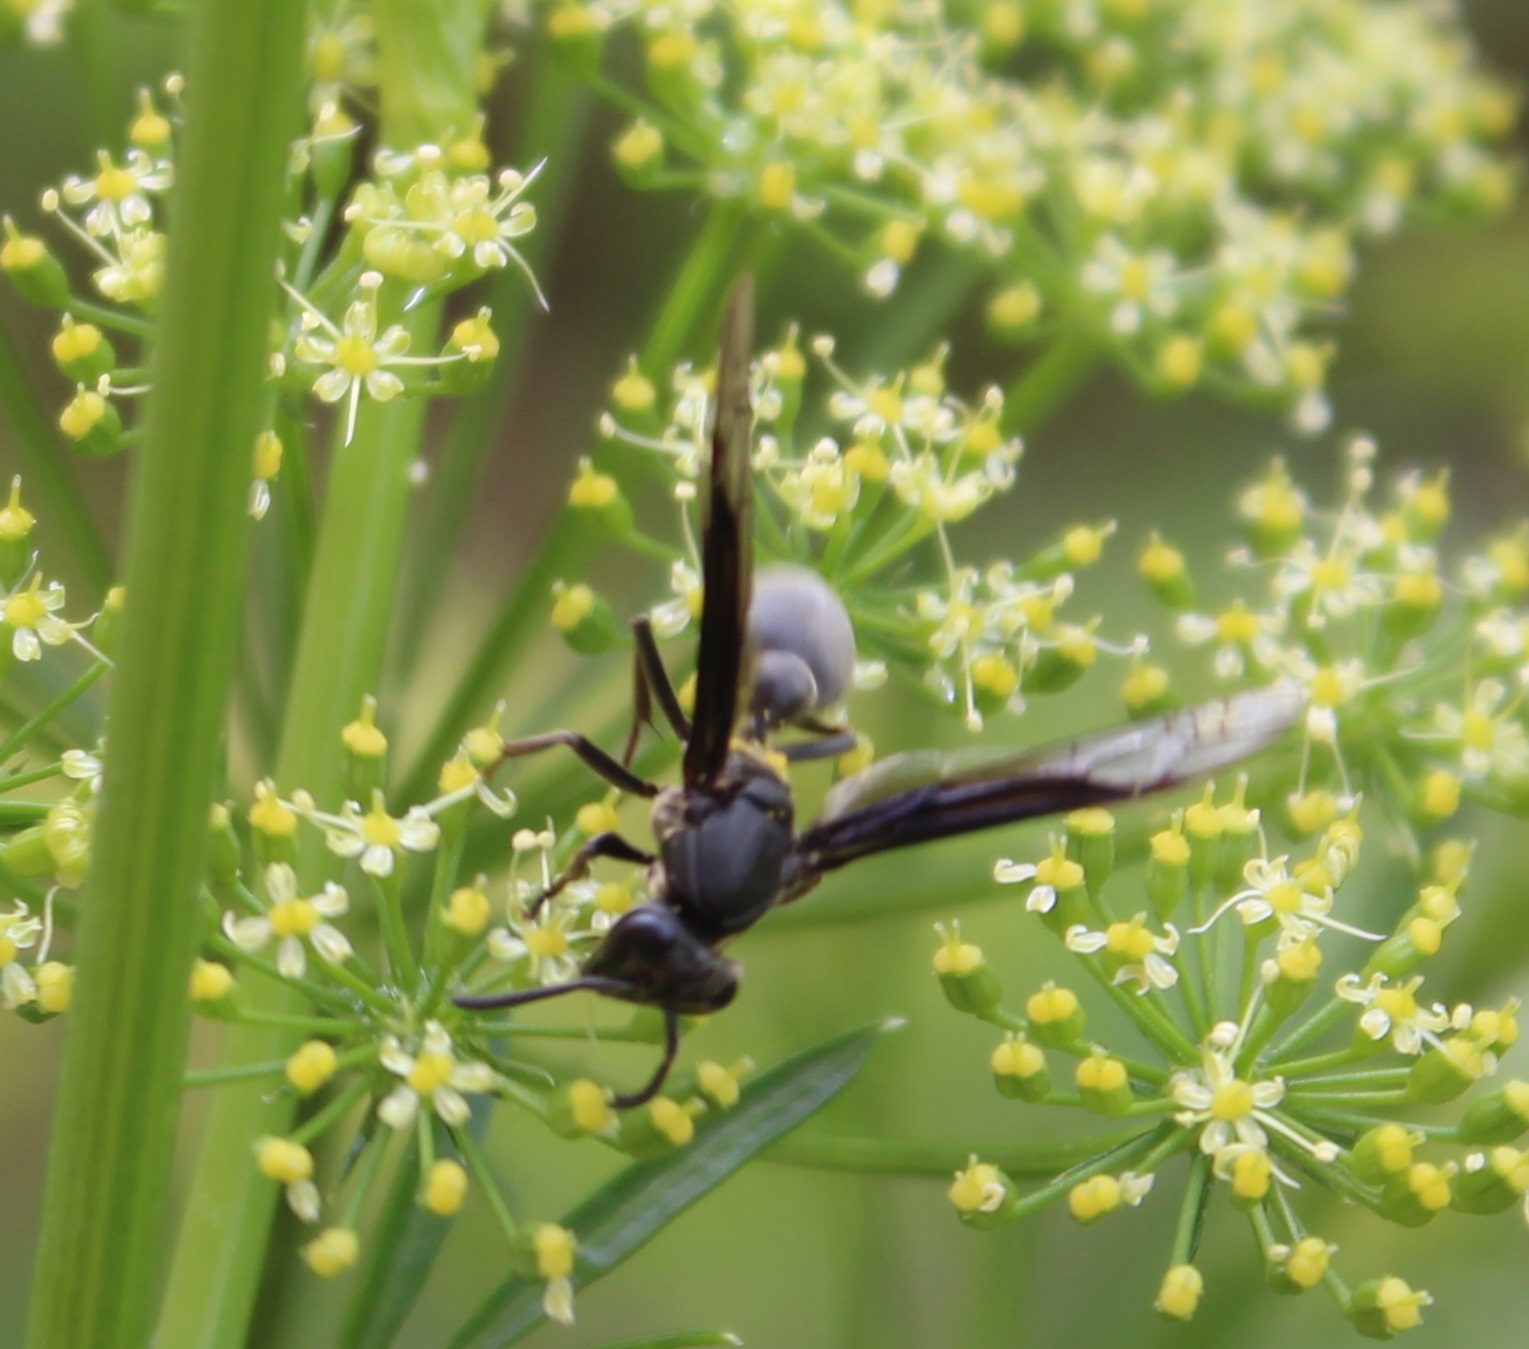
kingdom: Animalia
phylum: Arthropoda
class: Insecta
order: Hymenoptera
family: Eumenidae
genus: Polybia
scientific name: Polybia ignobilis
